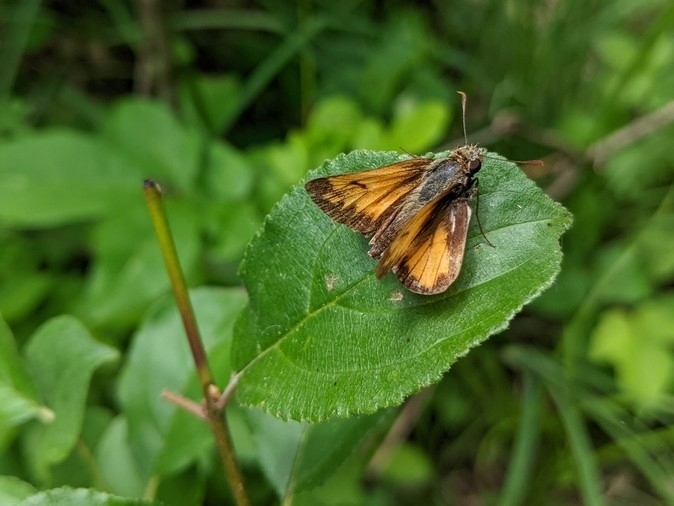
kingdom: Animalia
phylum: Arthropoda
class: Insecta
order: Lepidoptera
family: Hesperiidae
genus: Lon
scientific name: Lon hobomok
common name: Hobomok skipper
